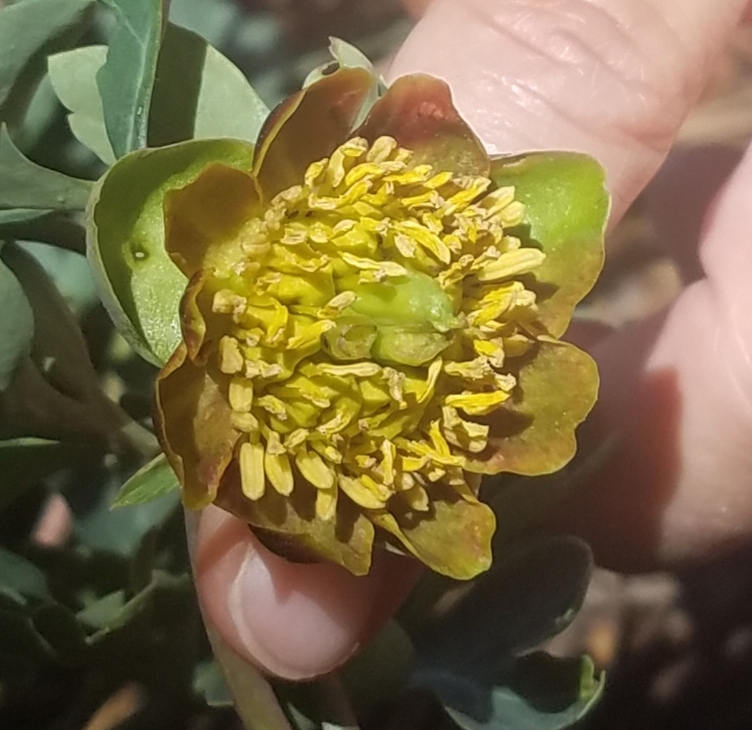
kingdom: Plantae
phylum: Tracheophyta
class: Magnoliopsida
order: Saxifragales
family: Paeoniaceae
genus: Paeonia
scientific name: Paeonia brownii
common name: Brown's peony
